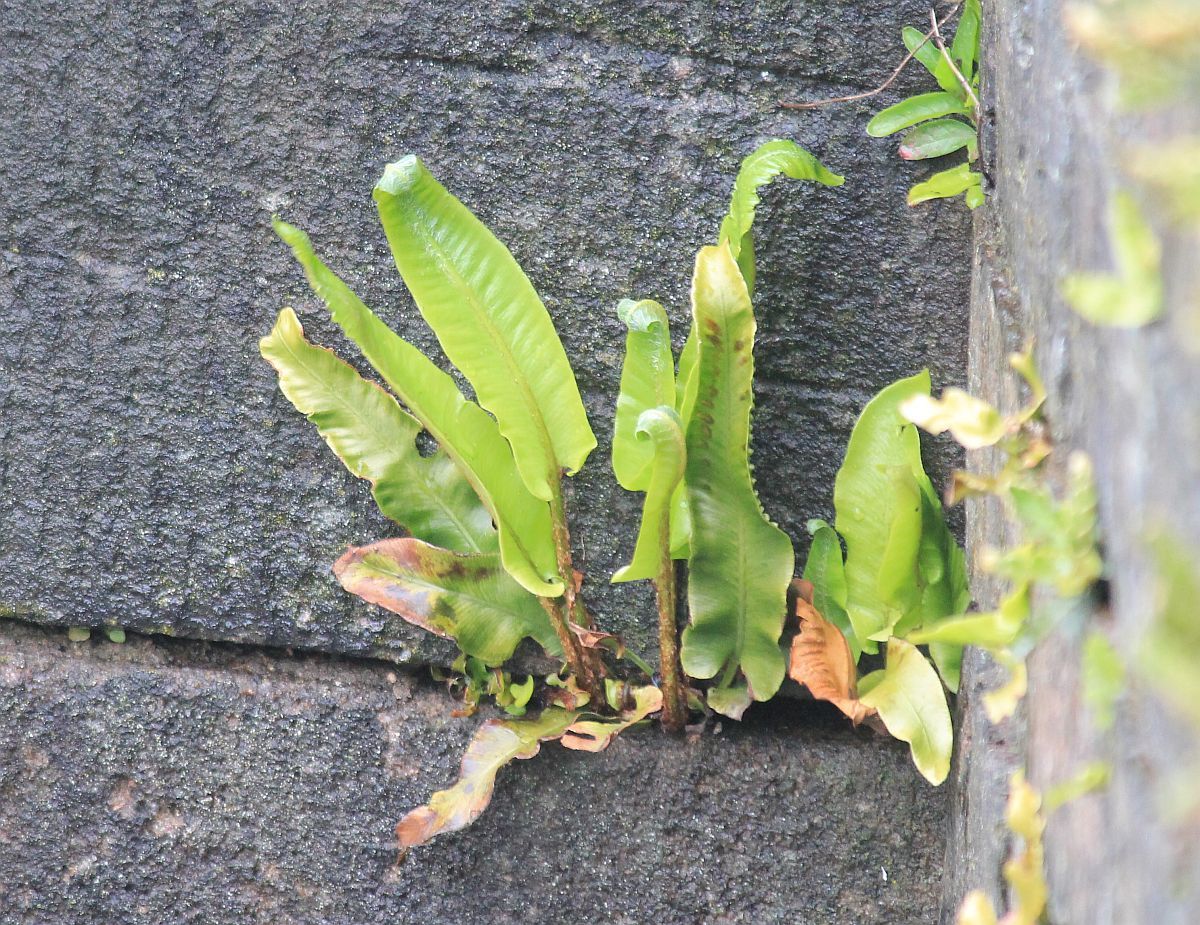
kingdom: Plantae
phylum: Tracheophyta
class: Polypodiopsida
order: Polypodiales
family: Aspleniaceae
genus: Asplenium
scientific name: Asplenium scolopendrium
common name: Hart's-tongue fern
